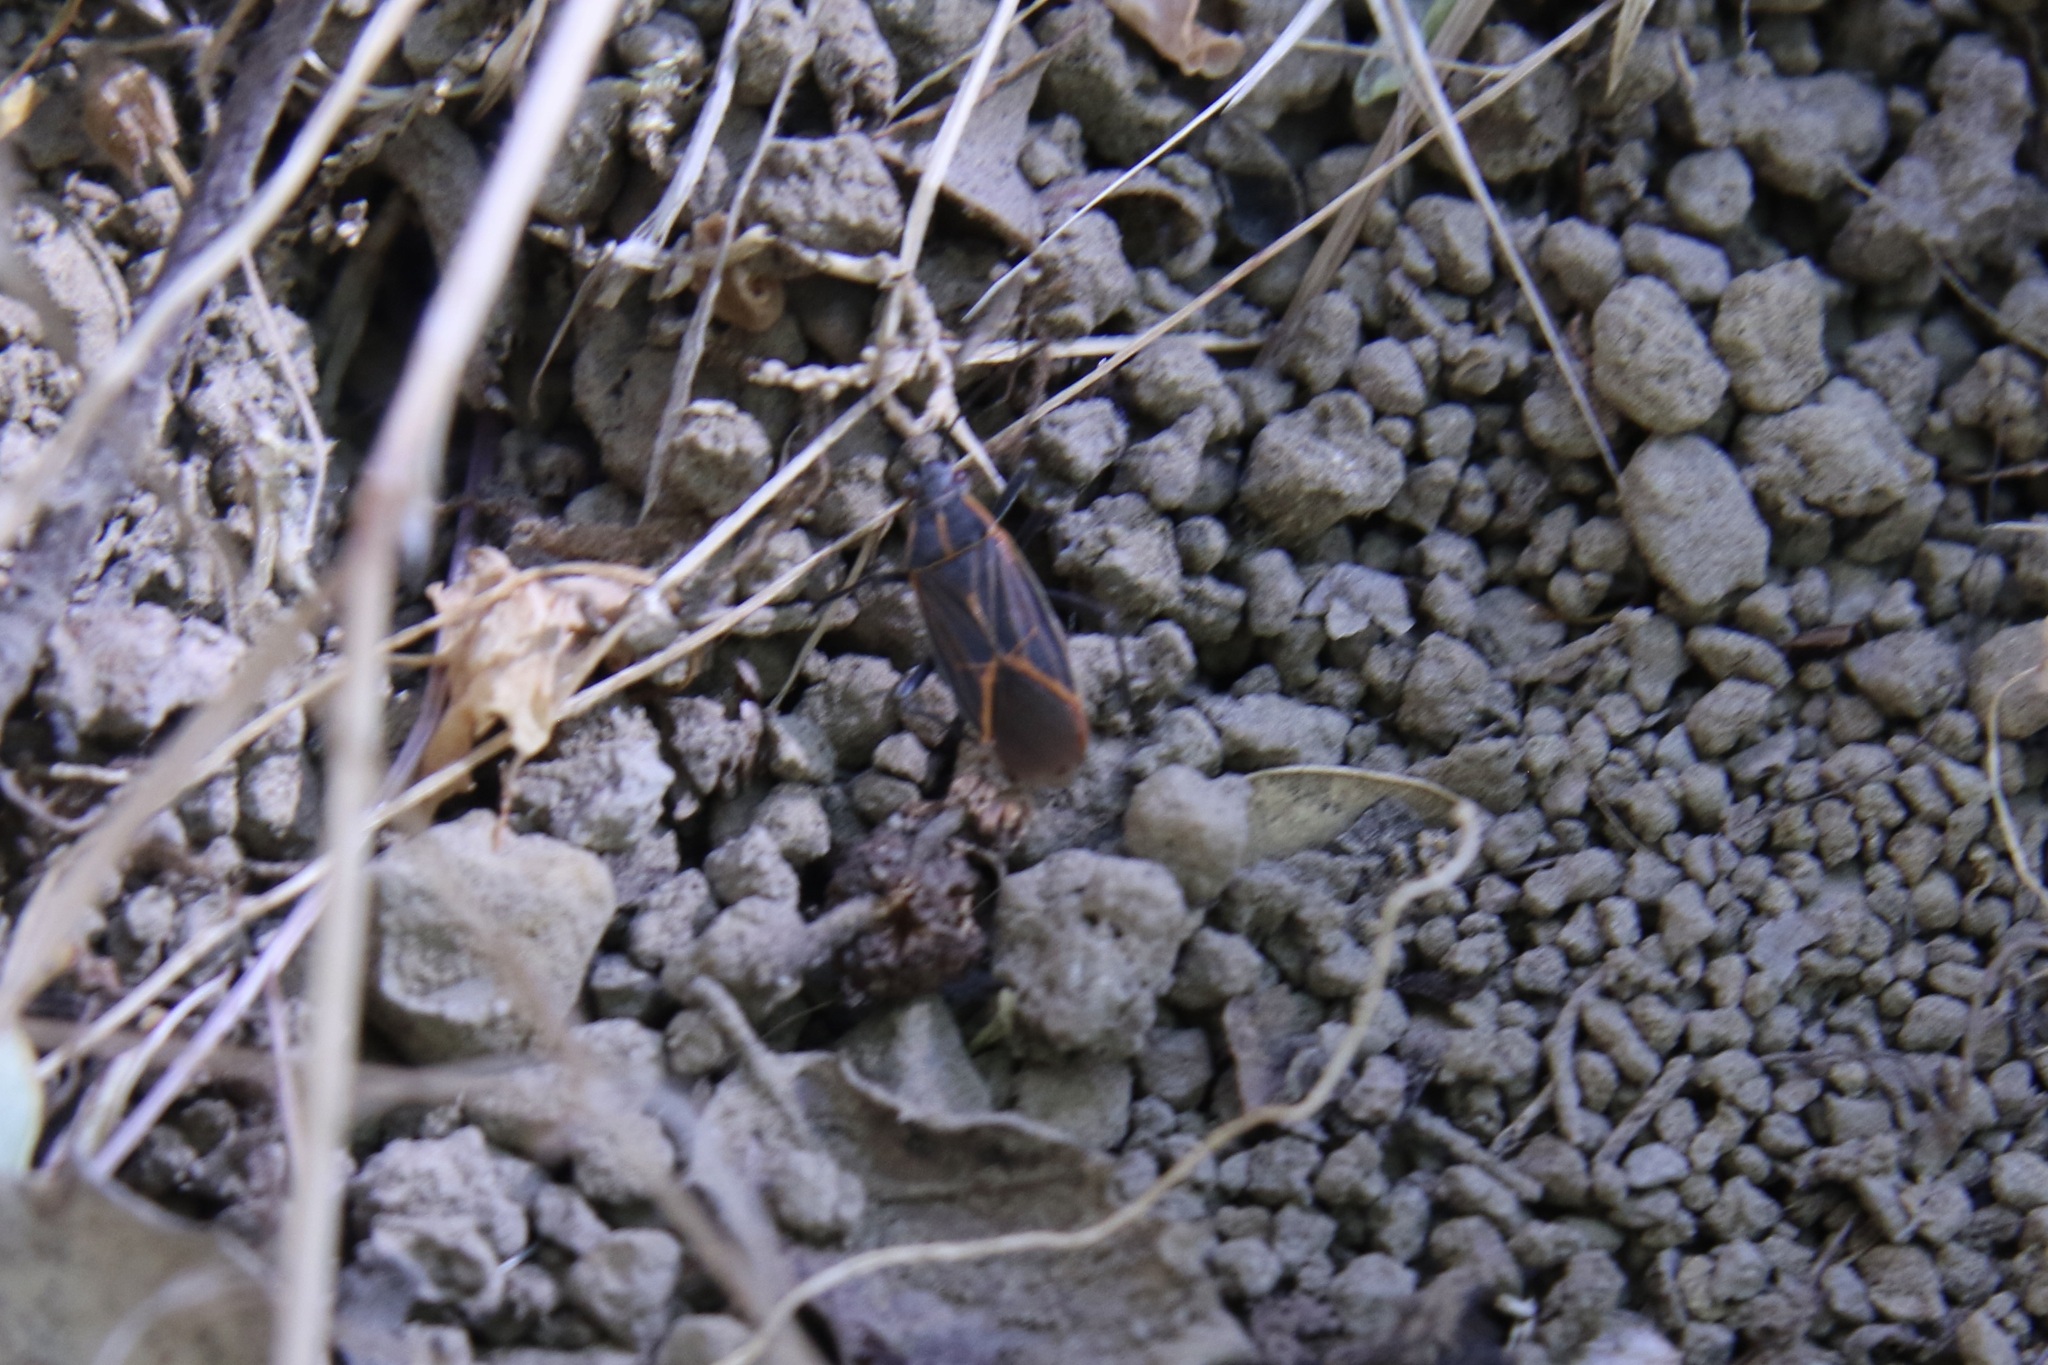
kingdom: Animalia
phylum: Arthropoda
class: Insecta
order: Hemiptera
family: Rhopalidae
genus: Boisea
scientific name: Boisea rubrolineata
